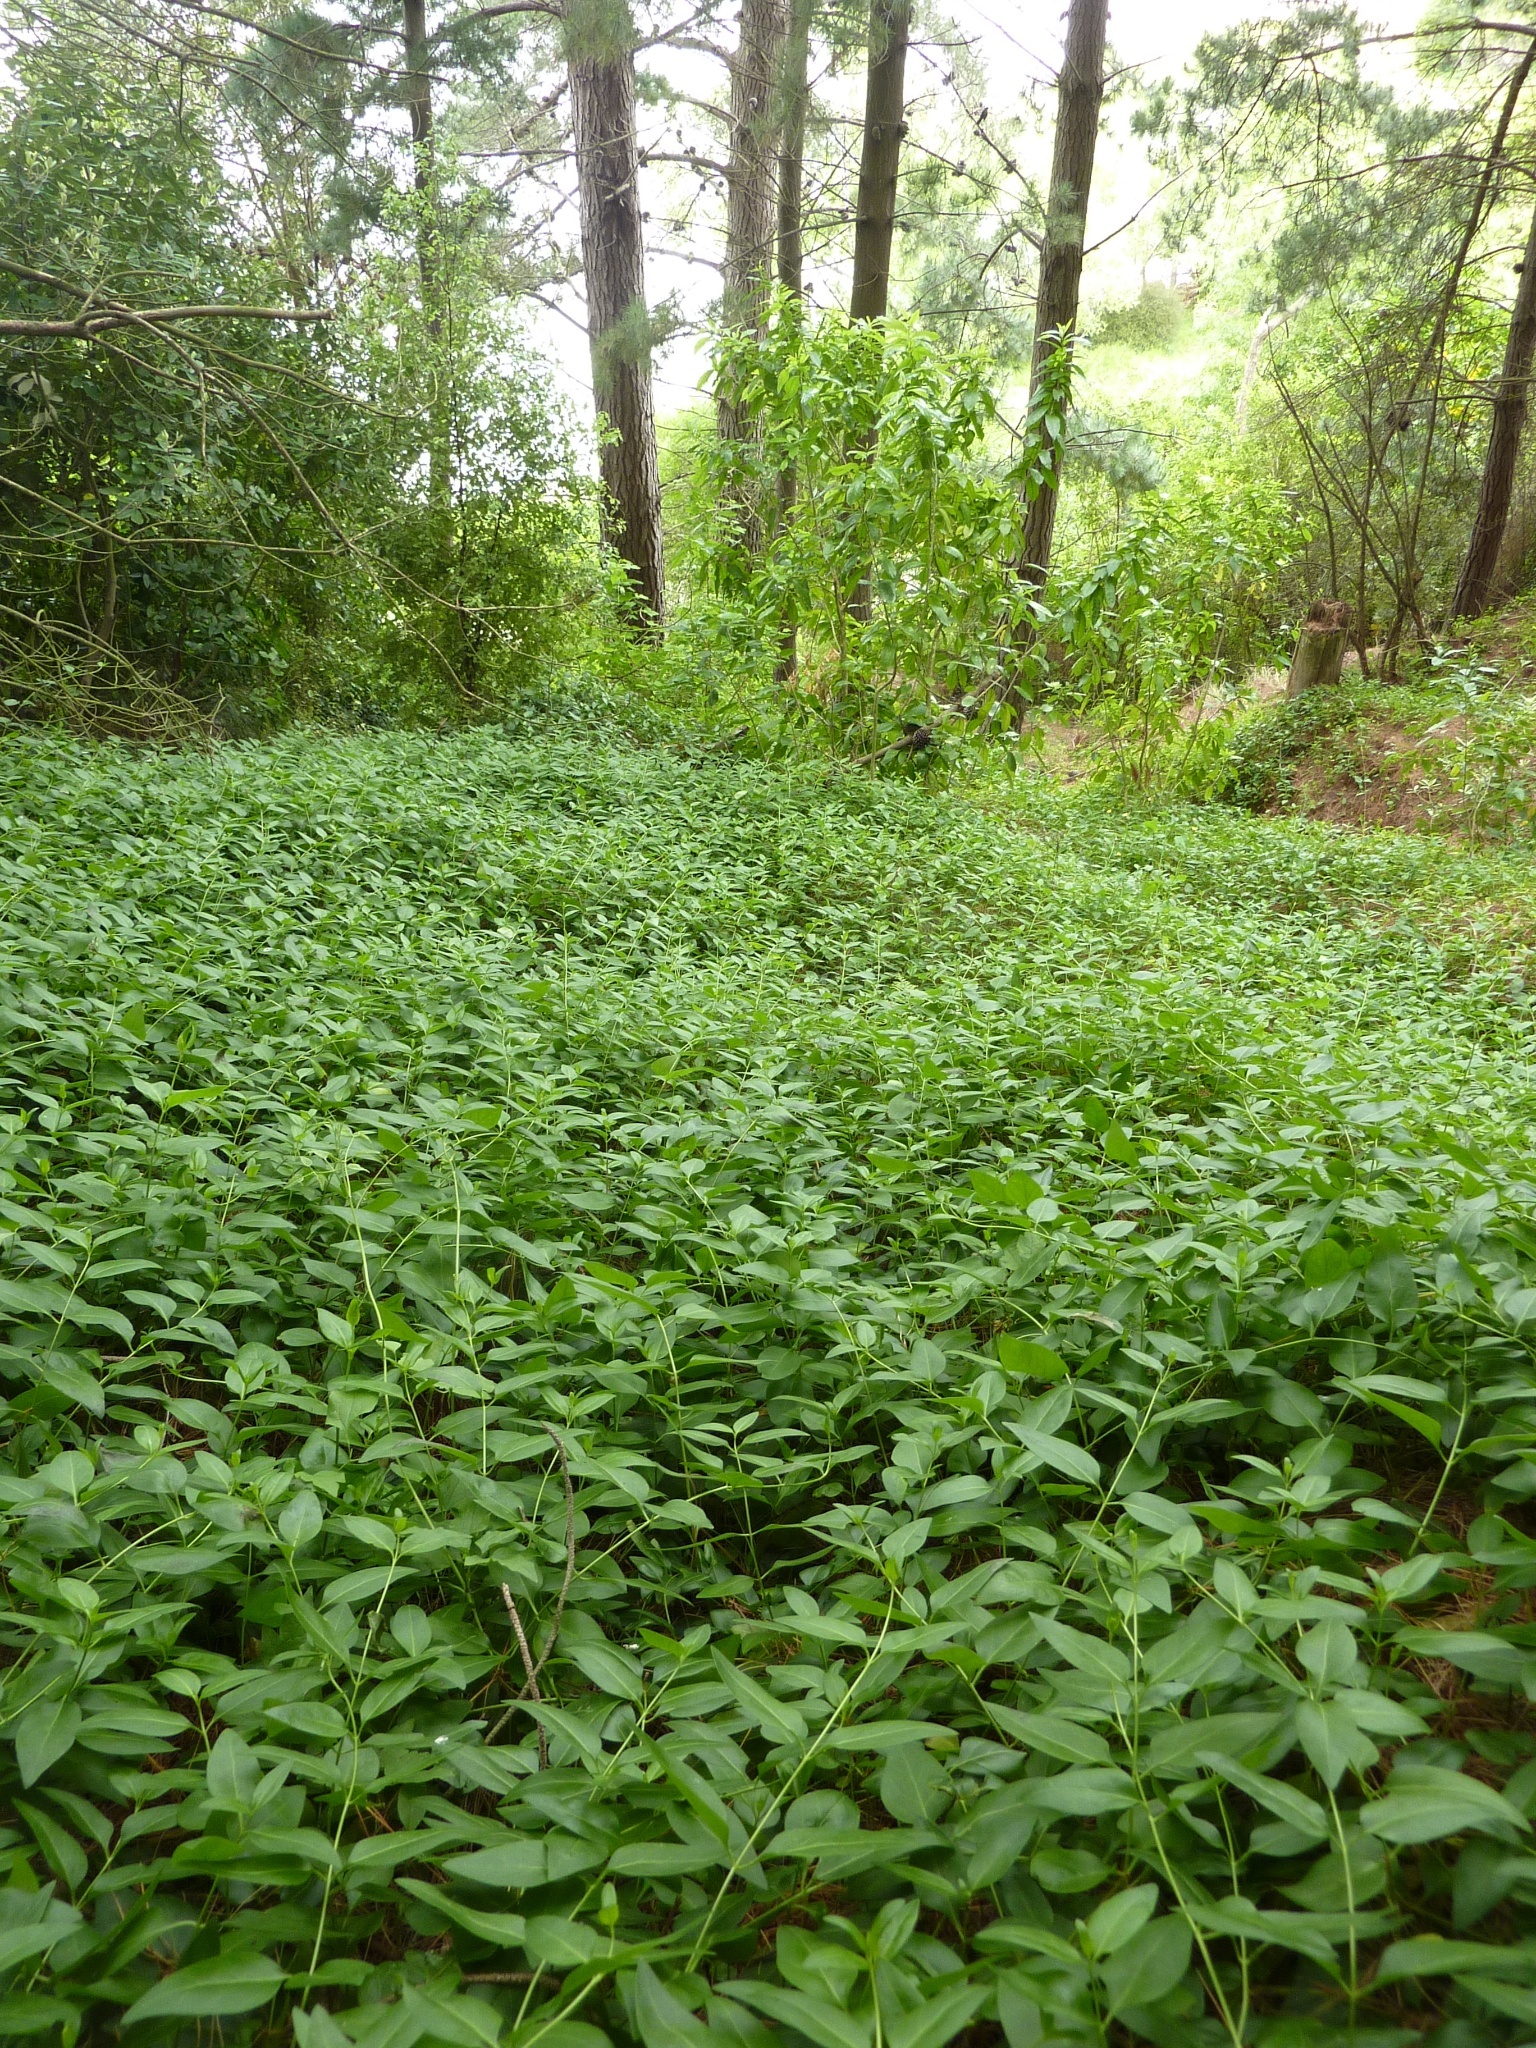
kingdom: Plantae
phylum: Tracheophyta
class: Magnoliopsida
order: Gentianales
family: Apocynaceae
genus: Vinca
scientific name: Vinca major
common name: Greater periwinkle
